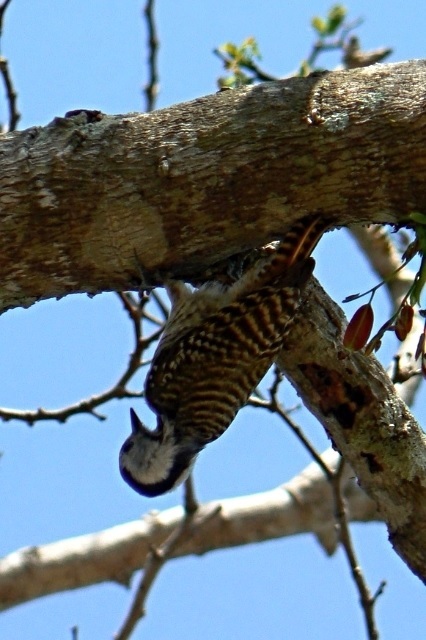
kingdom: Animalia
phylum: Chordata
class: Aves
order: Piciformes
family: Picidae
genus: Dendropicos
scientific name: Dendropicos fuscescens
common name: Cardinal woodpecker
